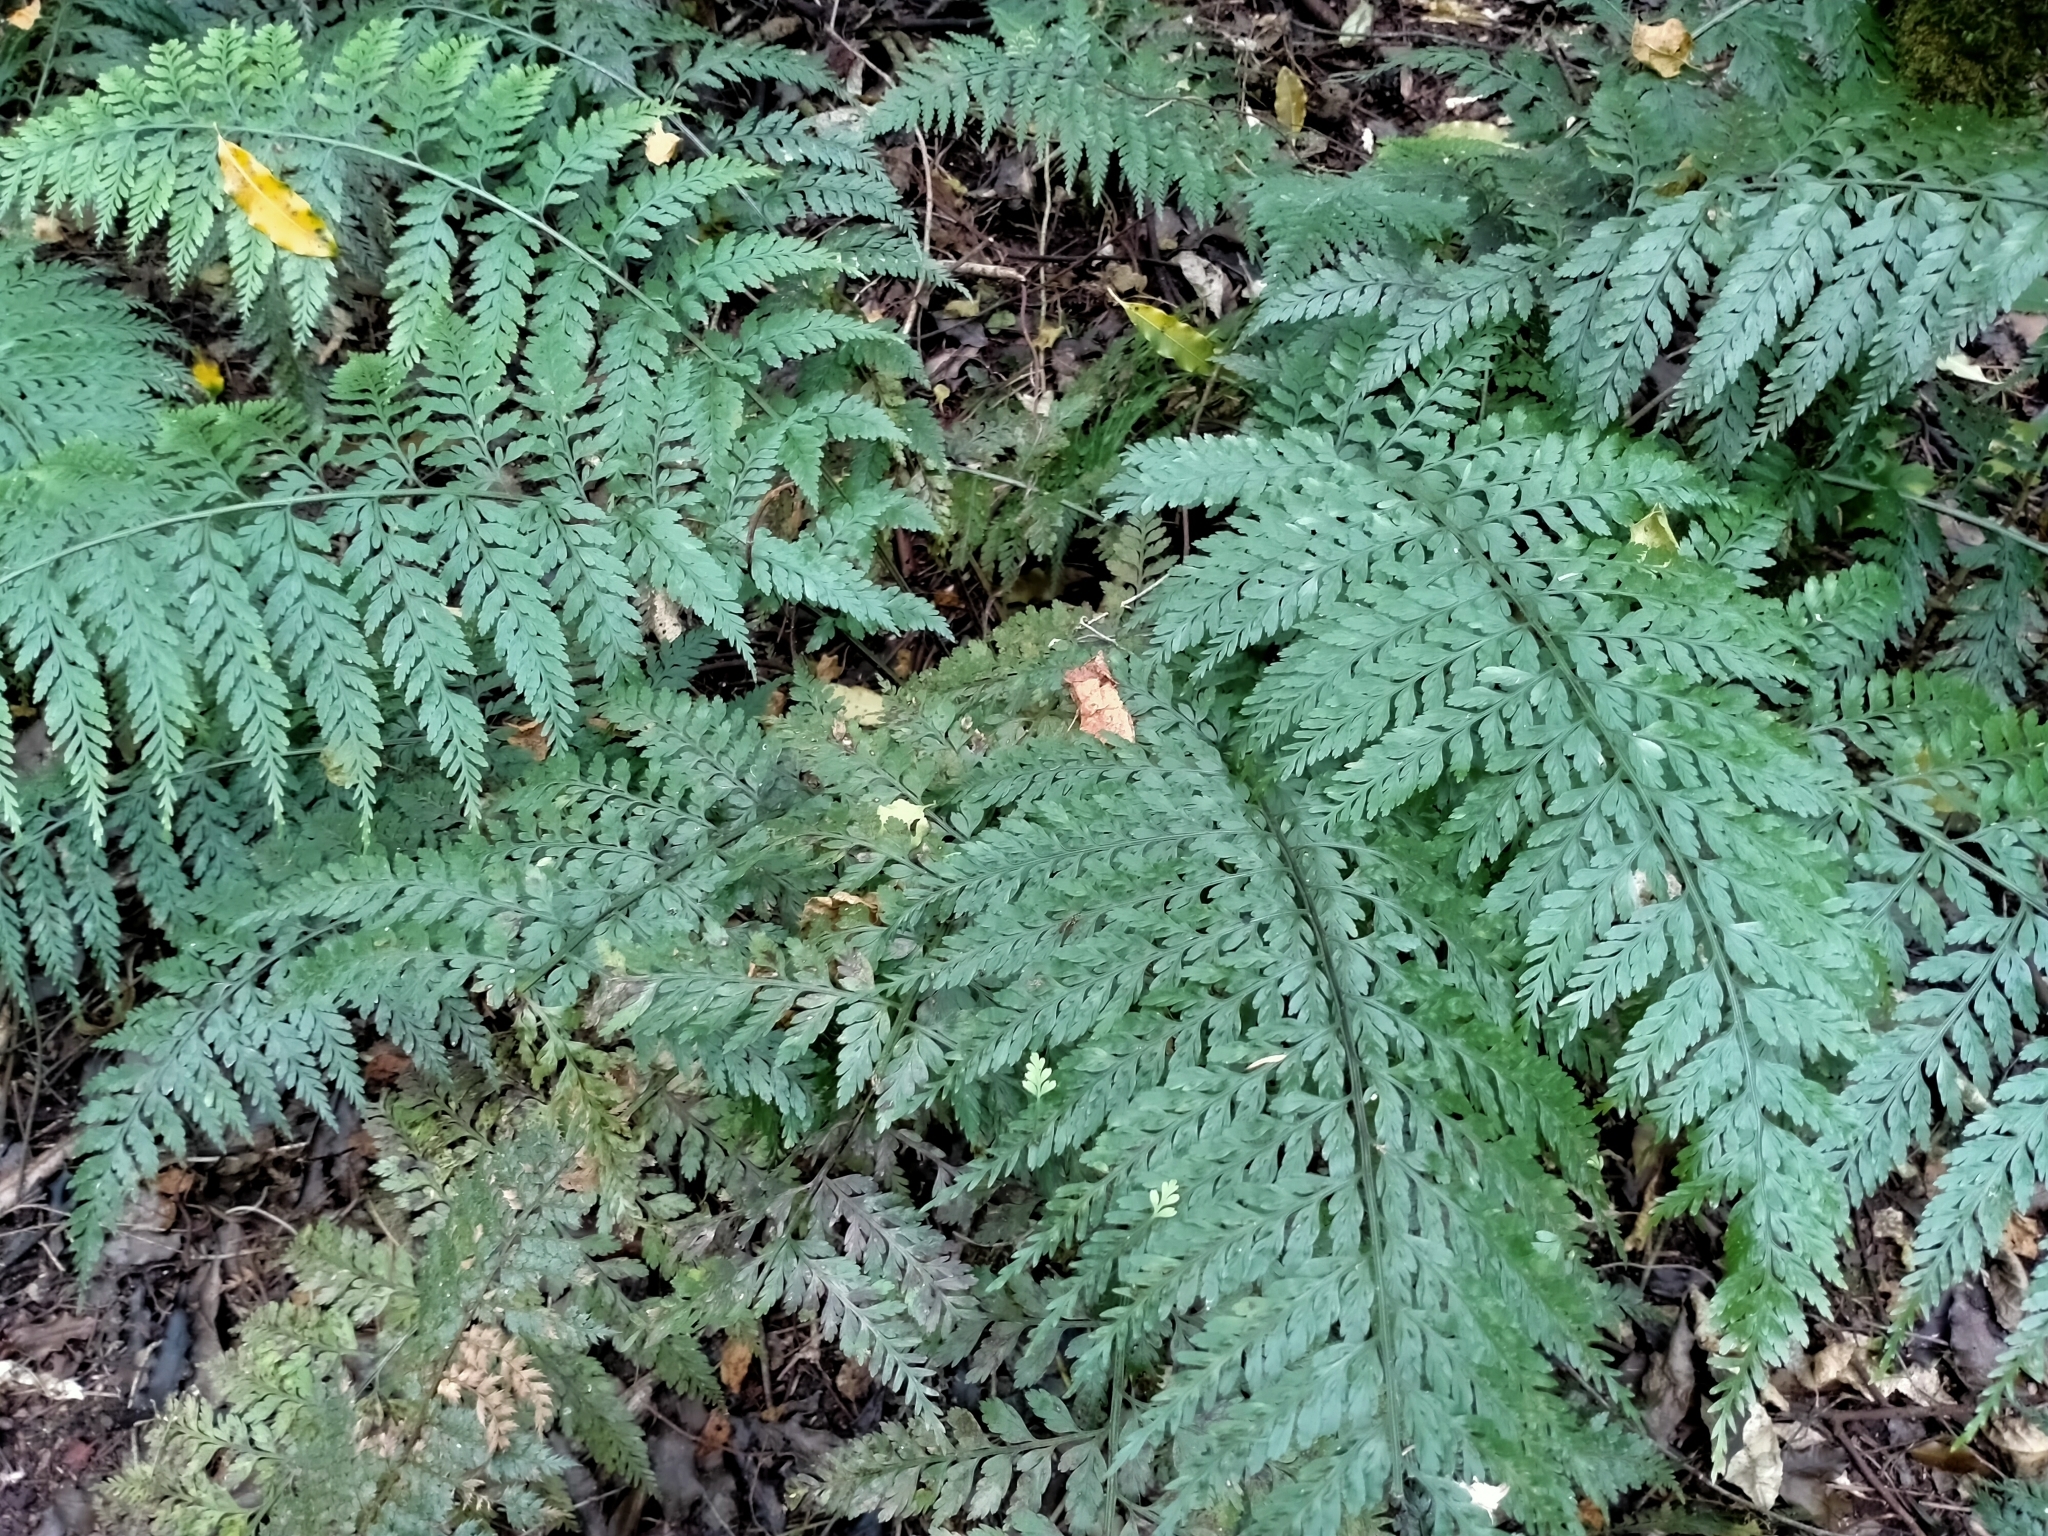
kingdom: Plantae
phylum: Tracheophyta
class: Polypodiopsida
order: Polypodiales
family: Aspleniaceae
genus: Asplenium
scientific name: Asplenium
